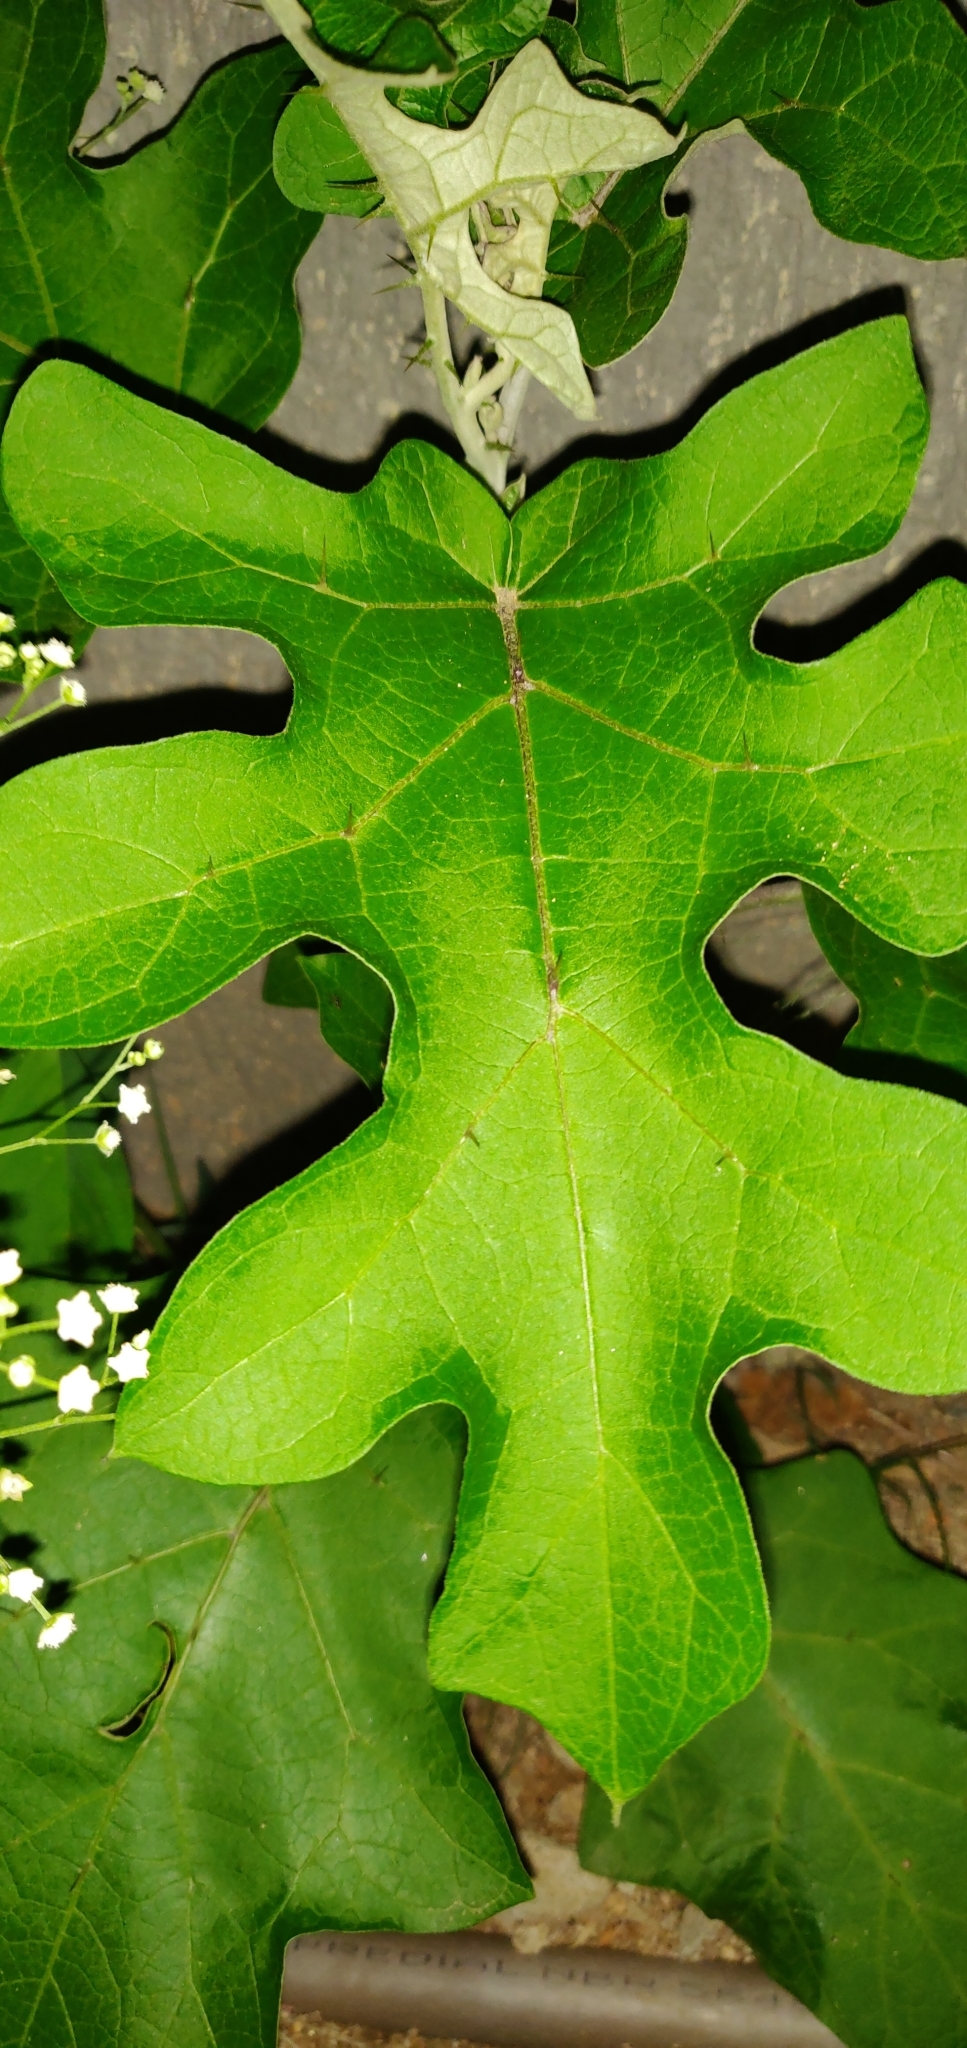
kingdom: Plantae
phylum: Tracheophyta
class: Magnoliopsida
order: Solanales
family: Solanaceae
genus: Solanum
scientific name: Solanum paniculatum
